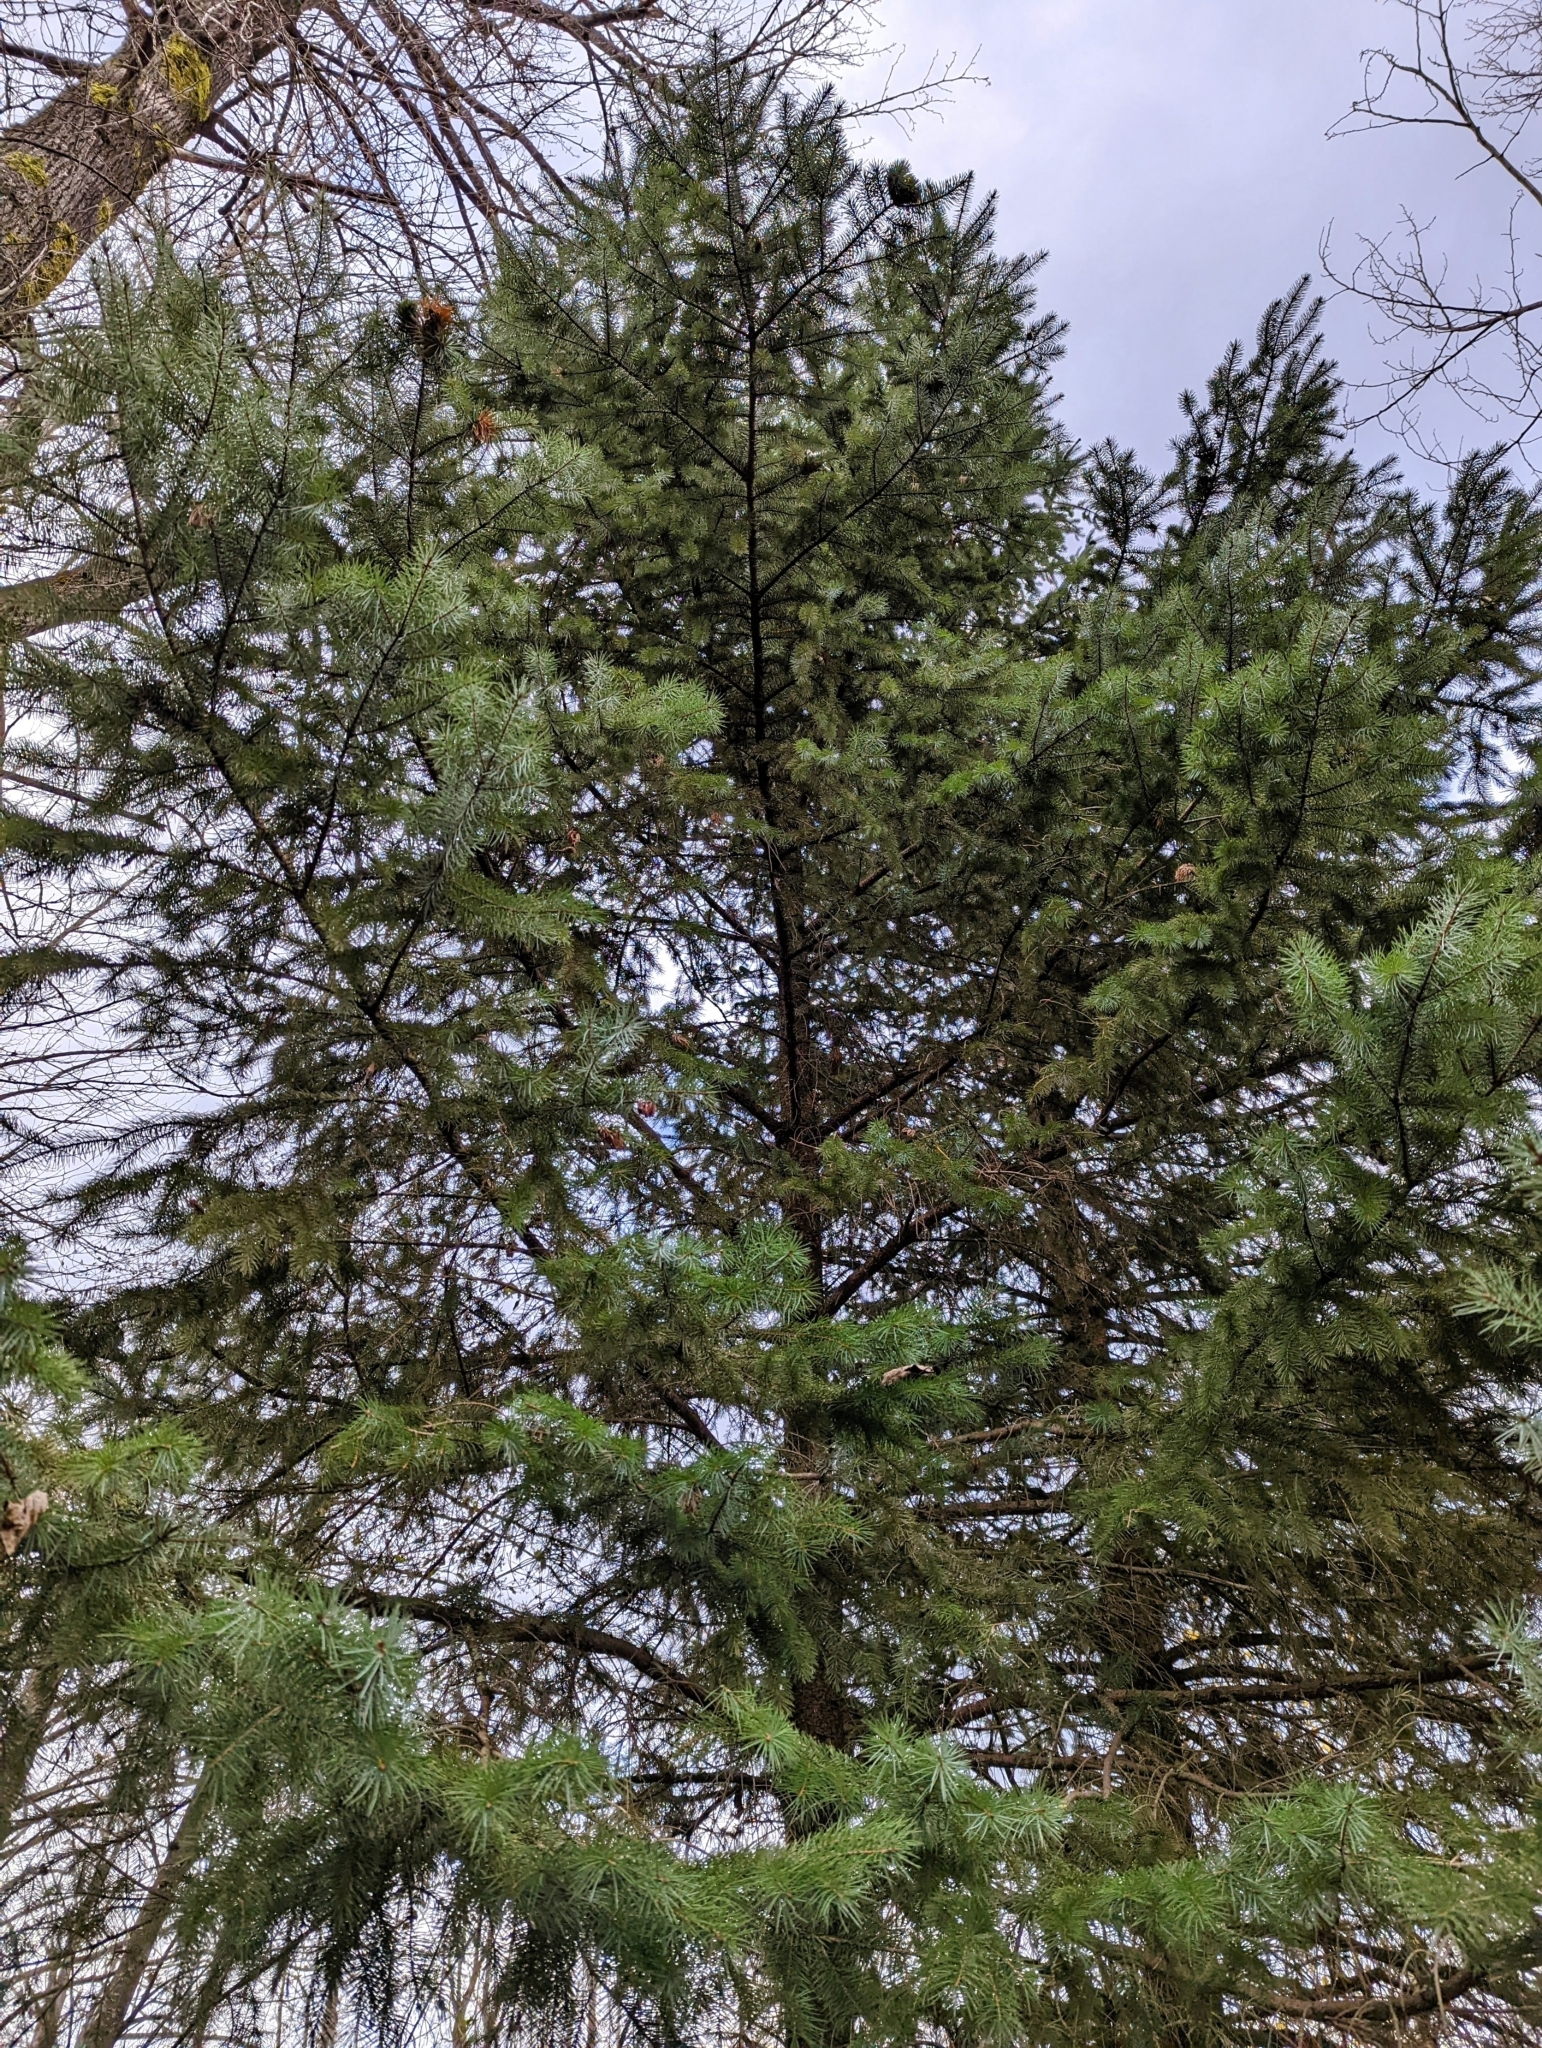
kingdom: Plantae
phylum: Tracheophyta
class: Pinopsida
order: Pinales
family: Pinaceae
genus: Picea
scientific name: Picea sitchensis
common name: Sitka spruce
